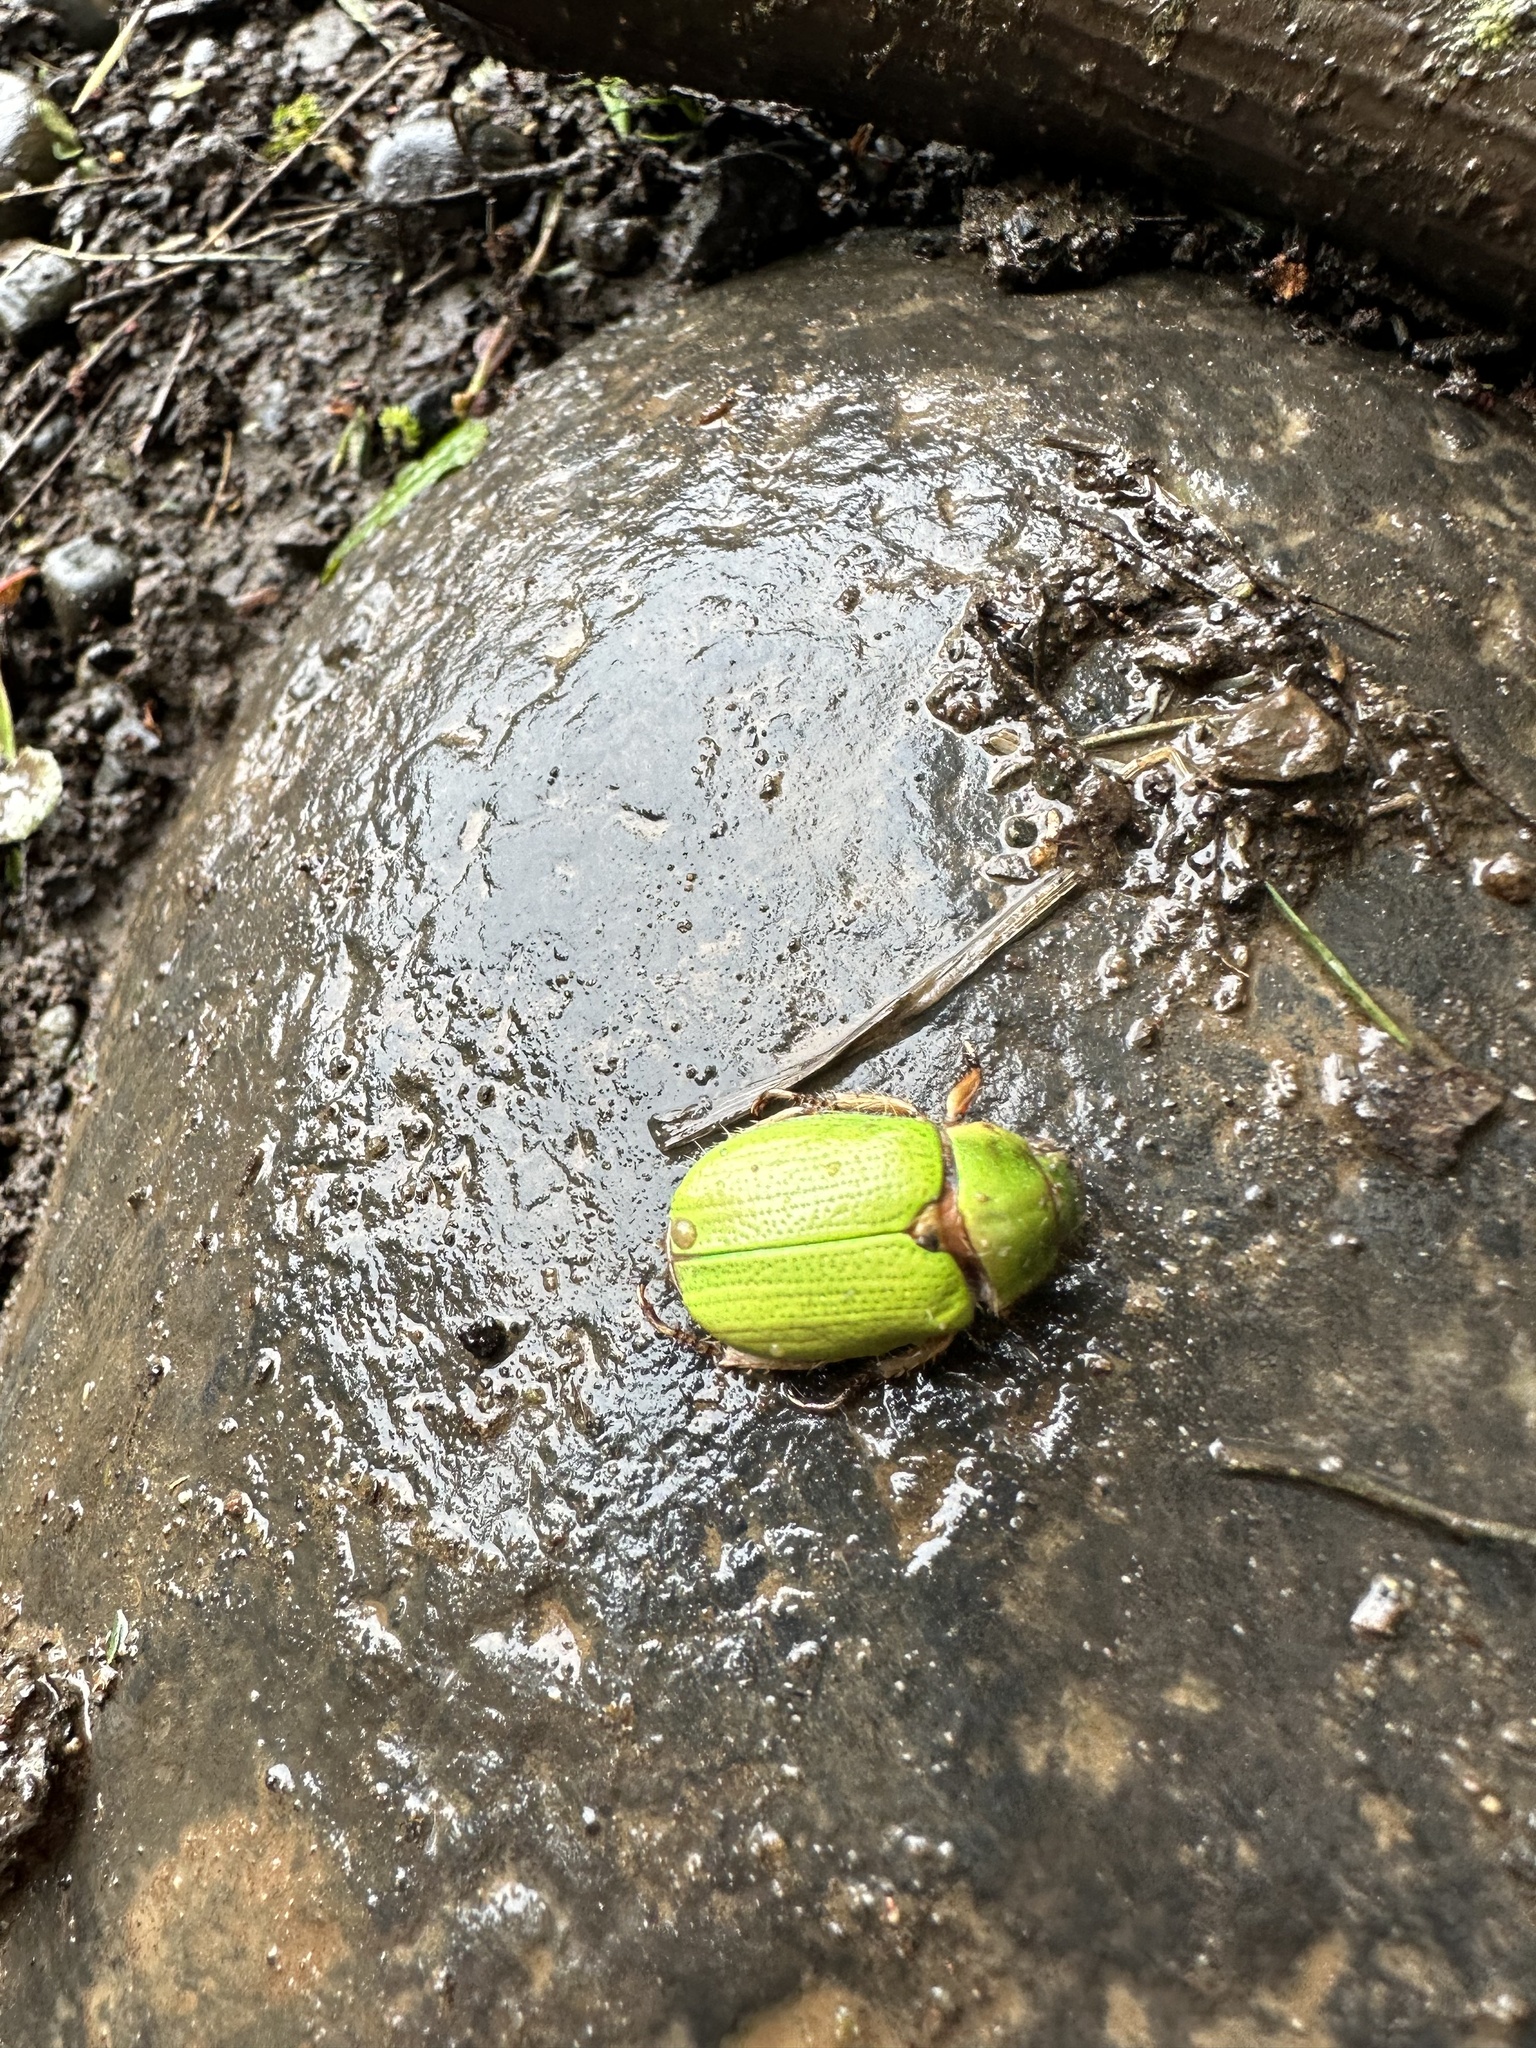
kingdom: Animalia
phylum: Arthropoda
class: Insecta
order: Coleoptera
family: Scarabaeidae
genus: Brachysternus
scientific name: Brachysternus prasinus
